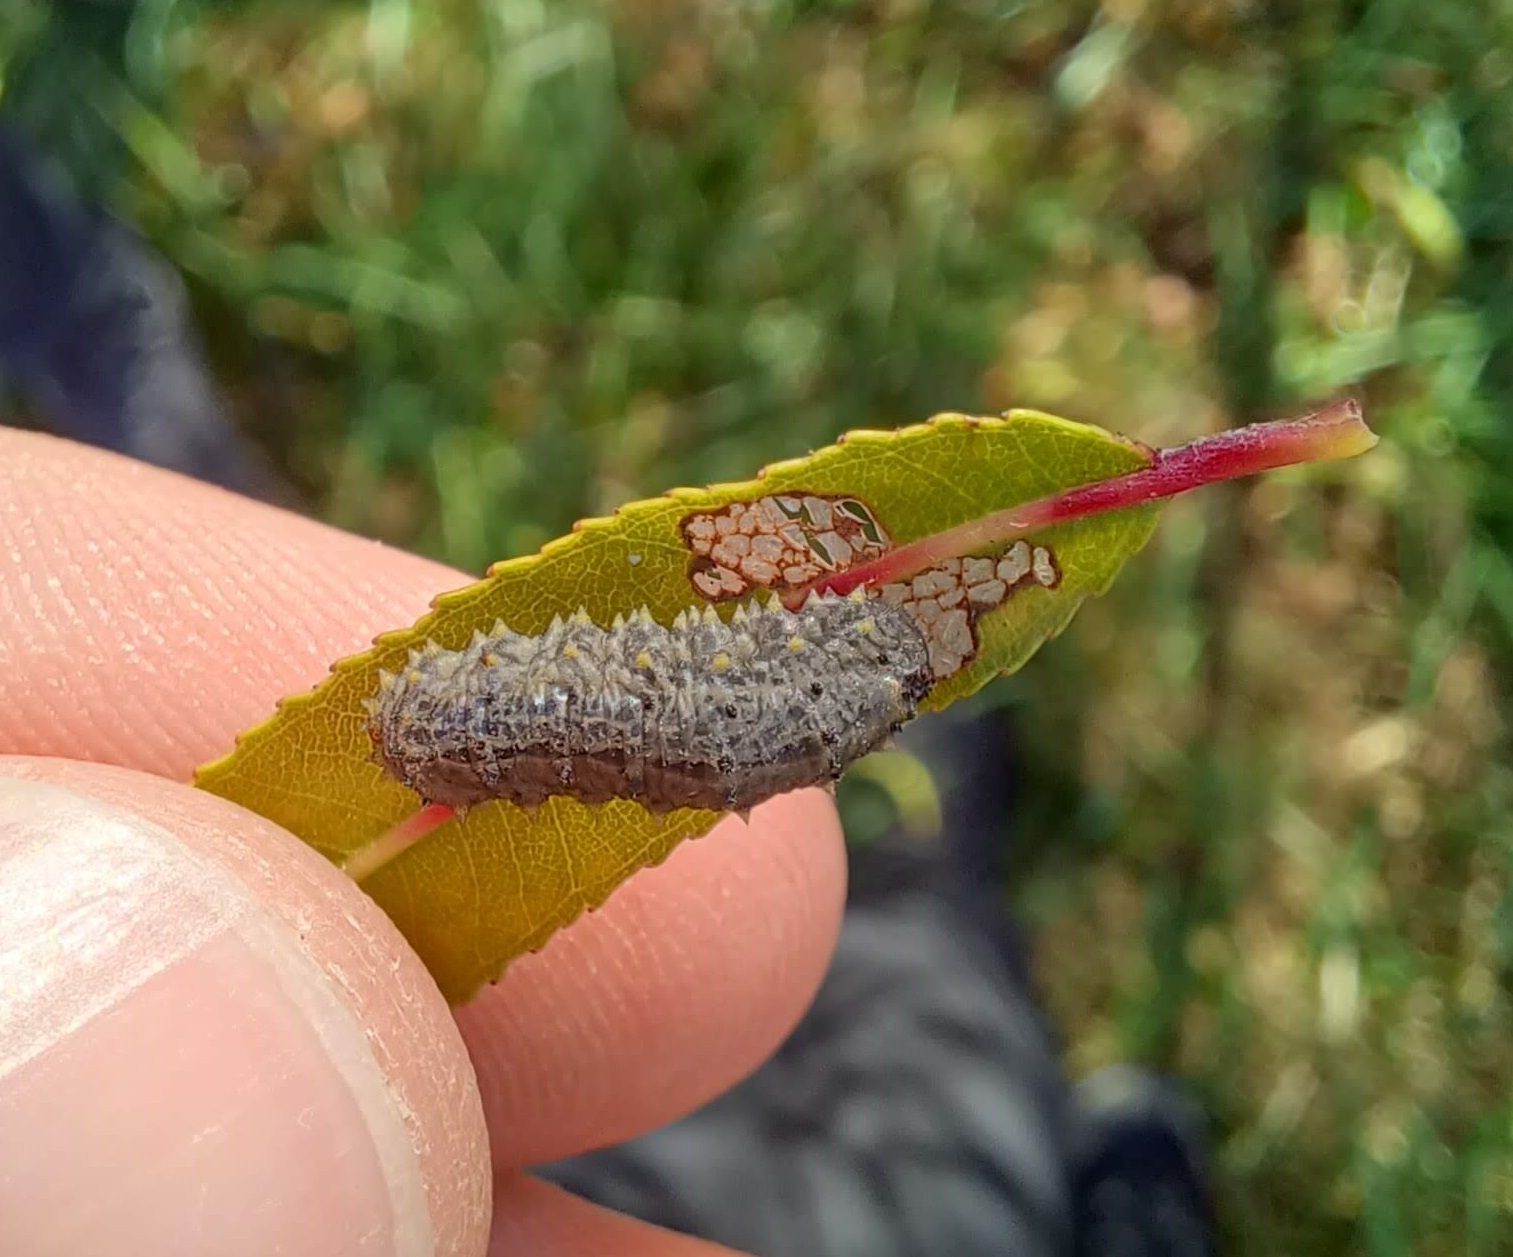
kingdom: Animalia
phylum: Arthropoda
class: Insecta
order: Diptera
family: Syrphidae
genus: Didea
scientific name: Didea fuscipes
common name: Undivided lucent
